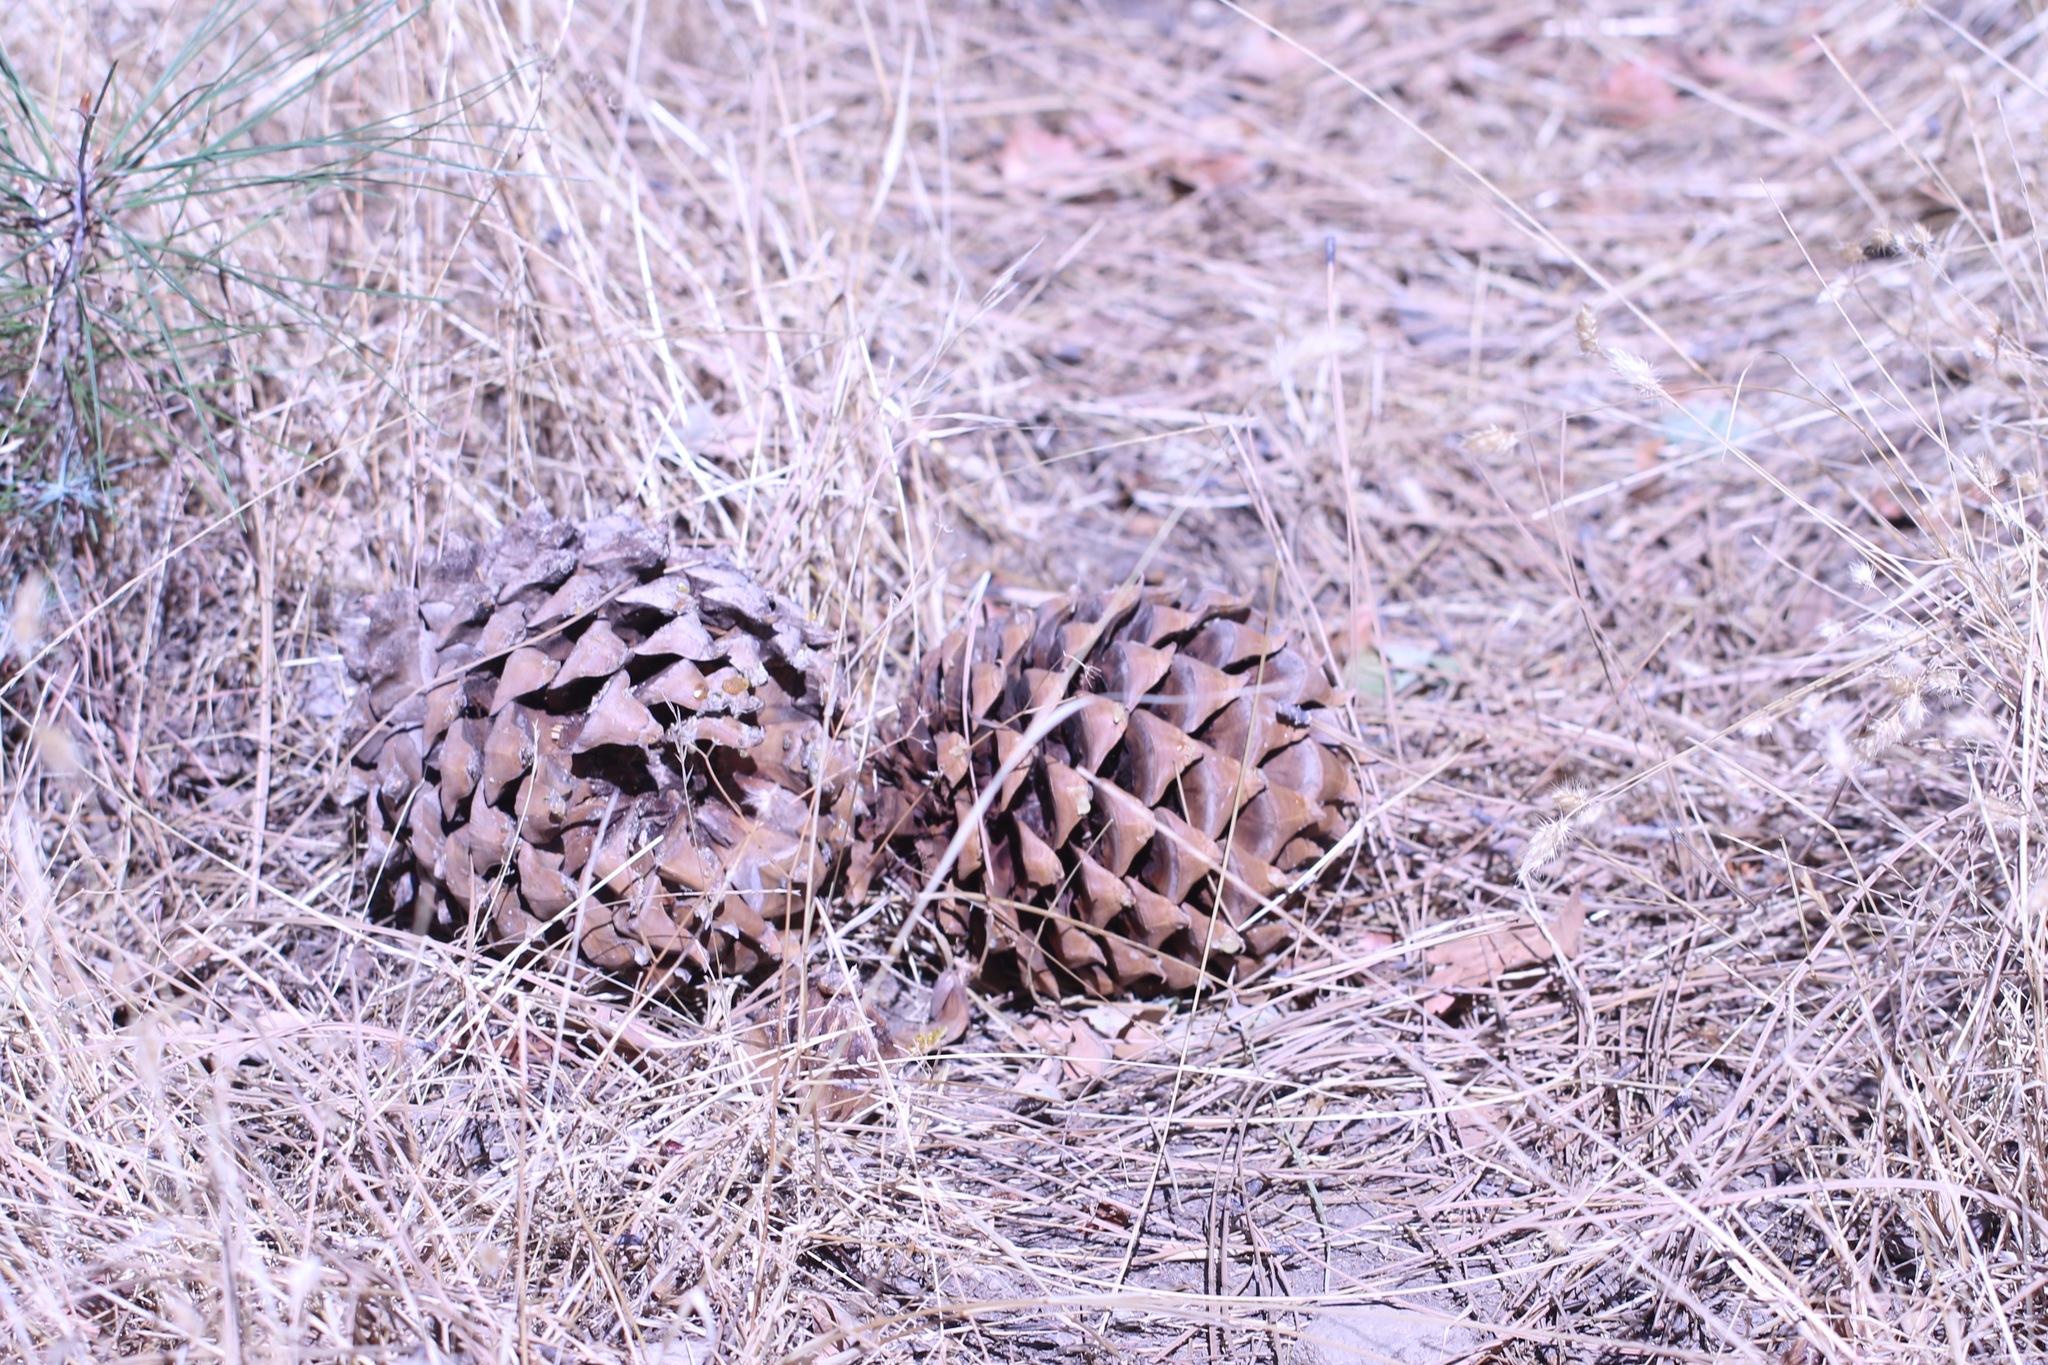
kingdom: Plantae
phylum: Tracheophyta
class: Pinopsida
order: Pinales
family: Pinaceae
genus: Pinus
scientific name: Pinus coulteri
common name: Coulter pine
